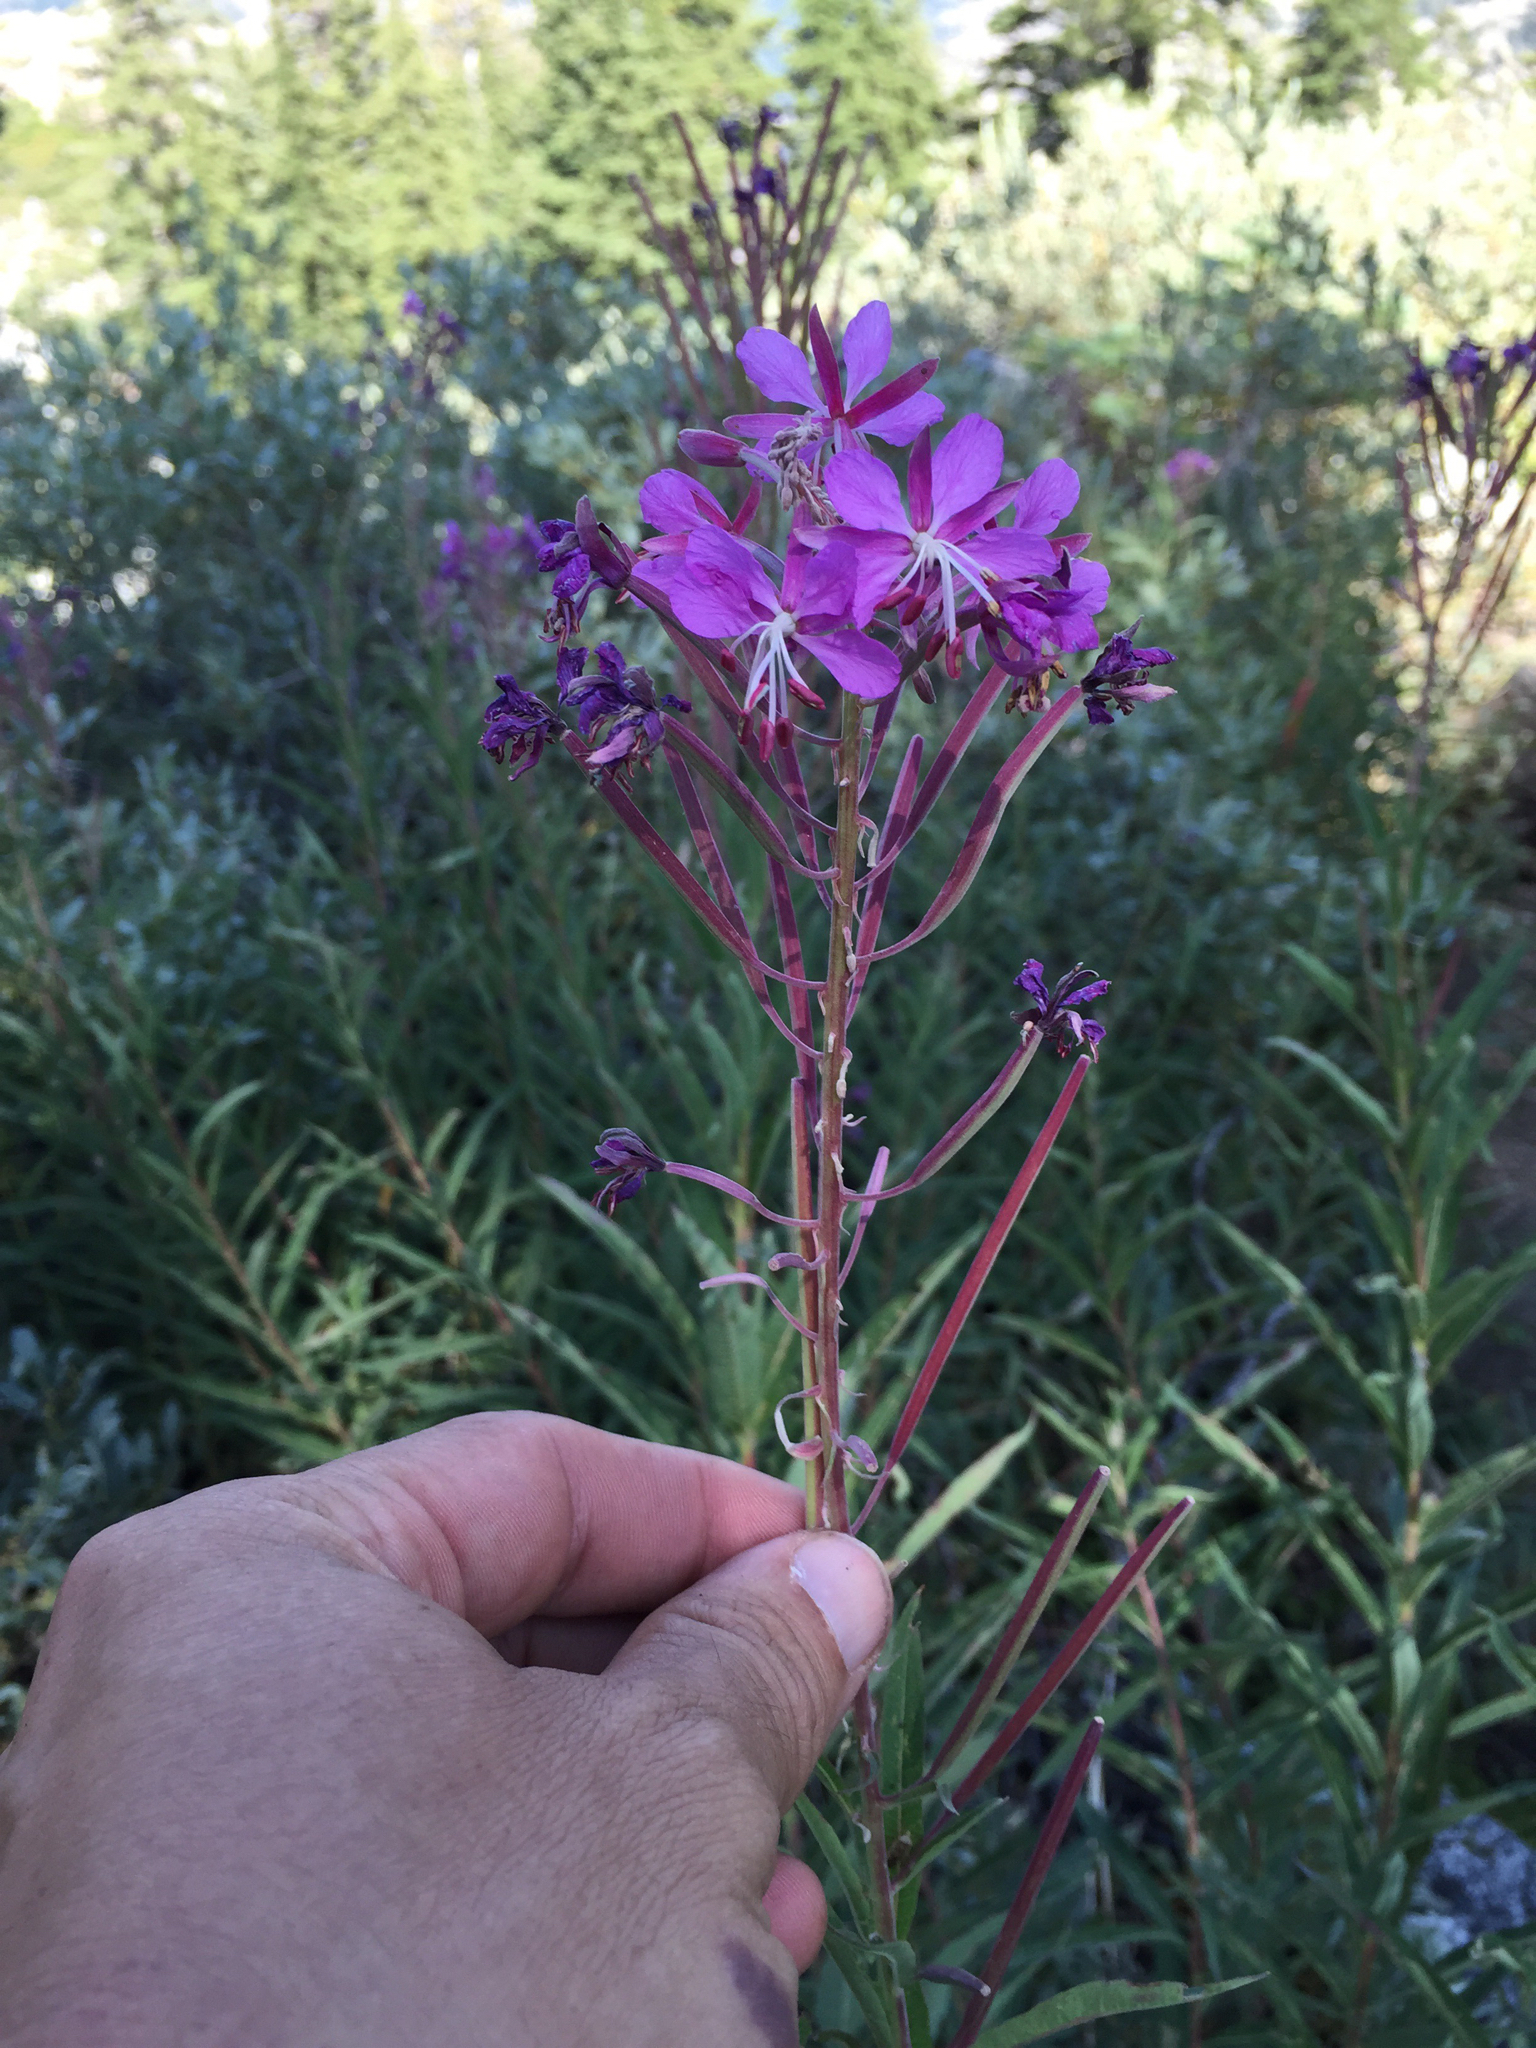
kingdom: Plantae
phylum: Tracheophyta
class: Magnoliopsida
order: Myrtales
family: Onagraceae
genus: Chamaenerion
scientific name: Chamaenerion angustifolium
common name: Fireweed
